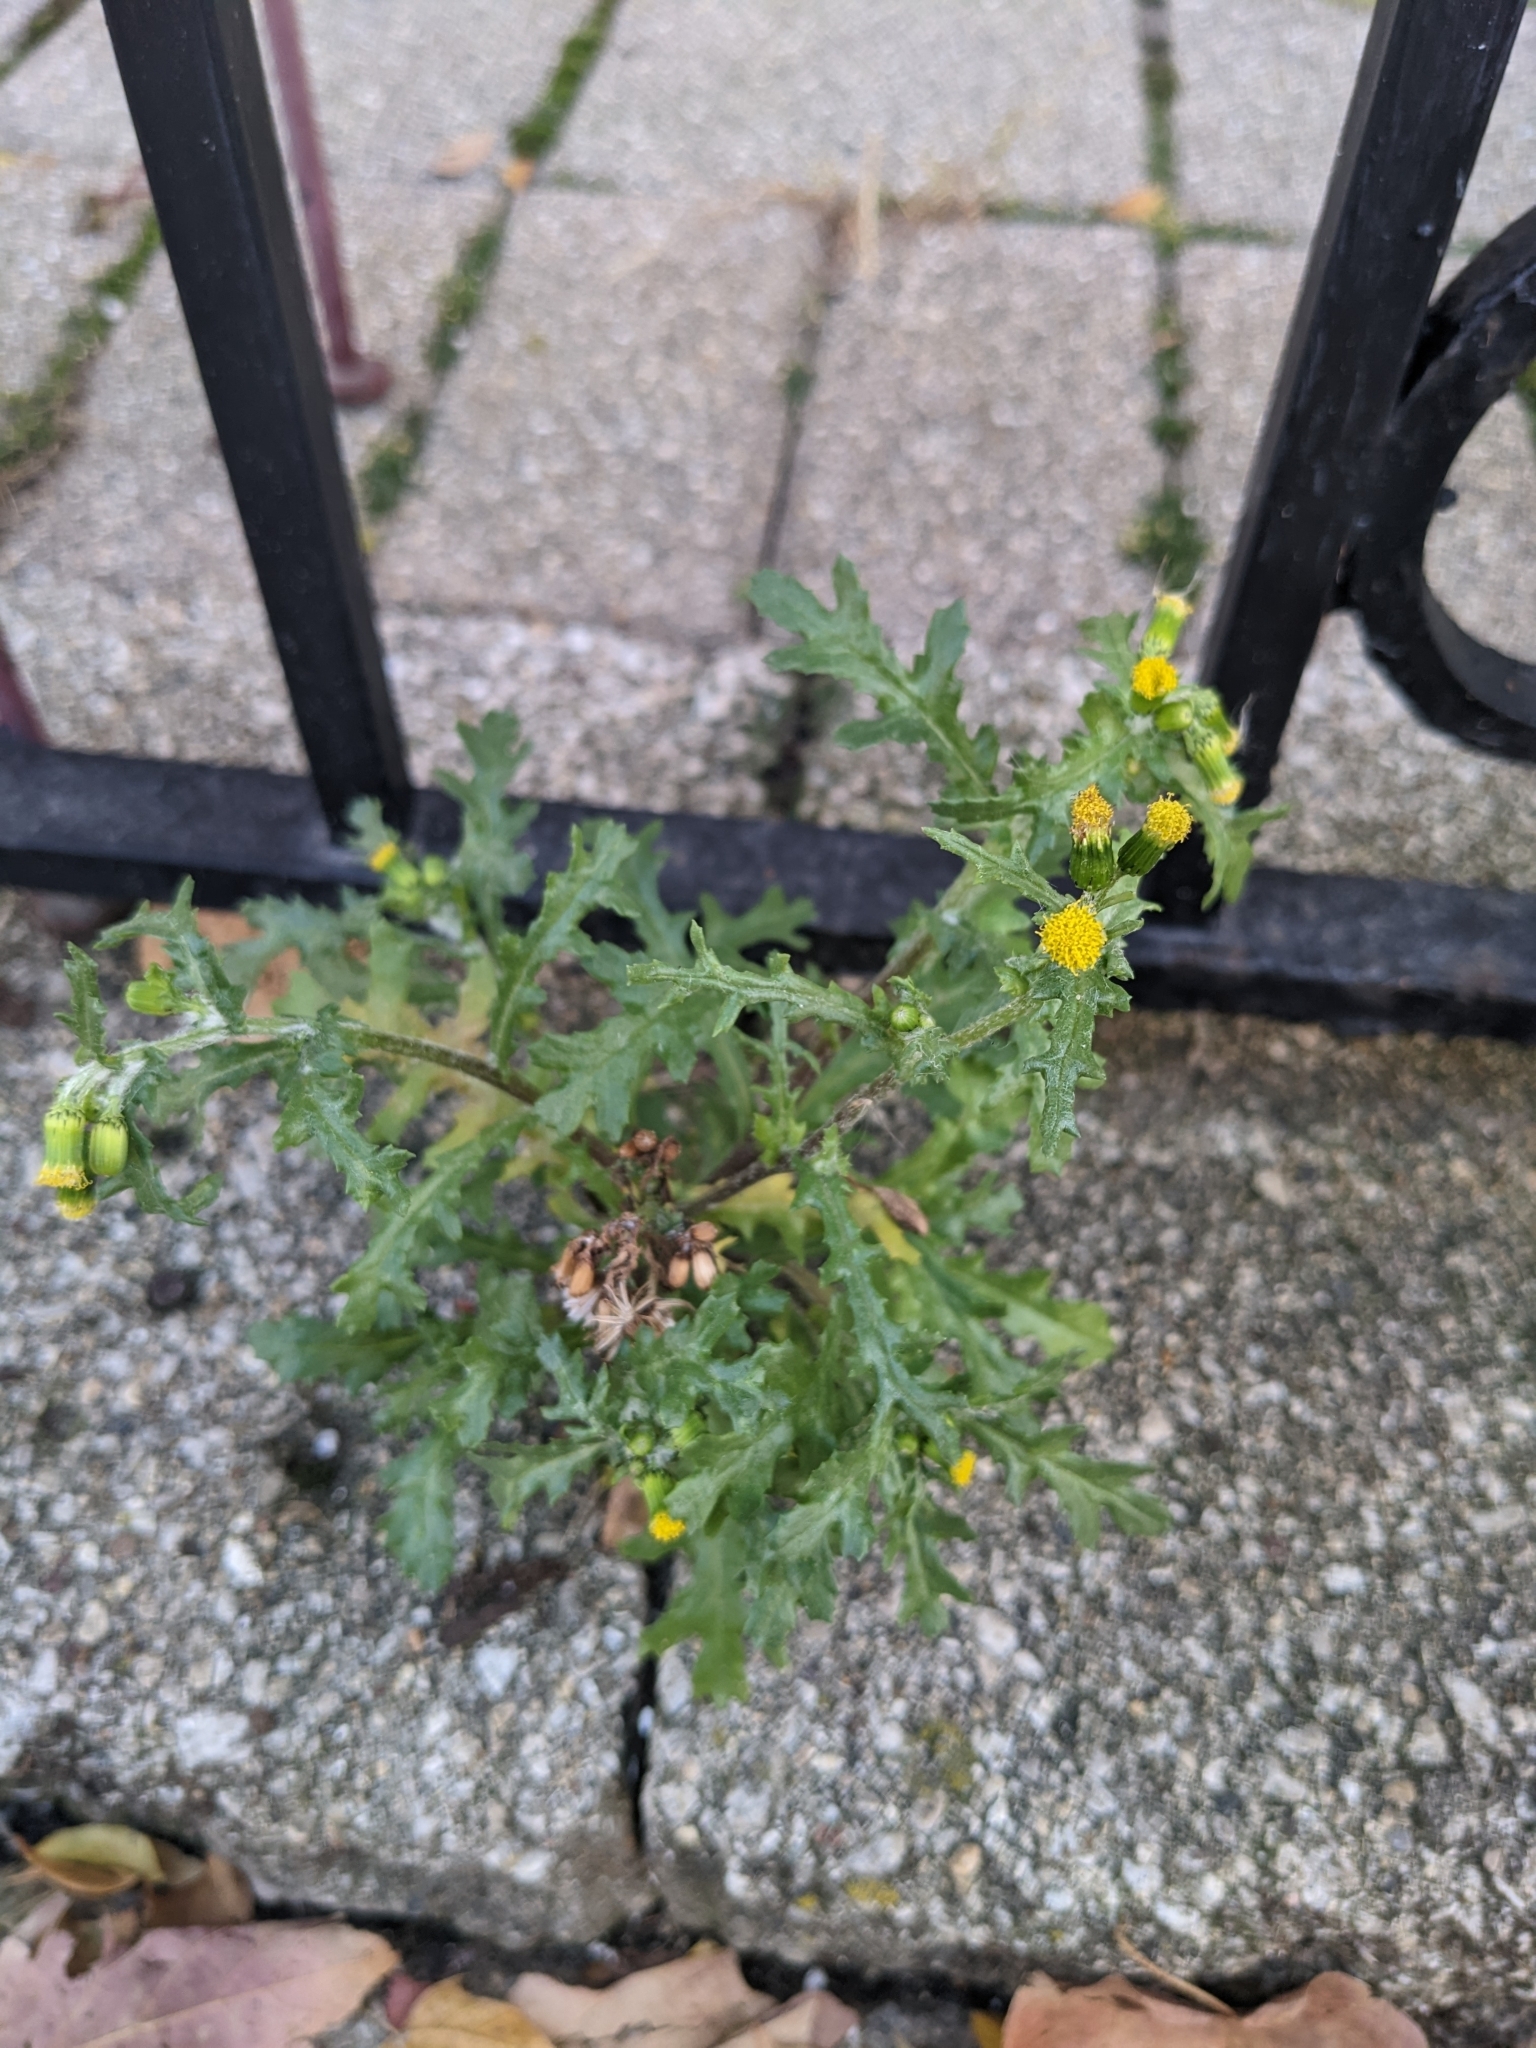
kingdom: Plantae
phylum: Tracheophyta
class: Magnoliopsida
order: Asterales
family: Asteraceae
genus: Senecio
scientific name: Senecio vulgaris
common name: Old-man-in-the-spring
